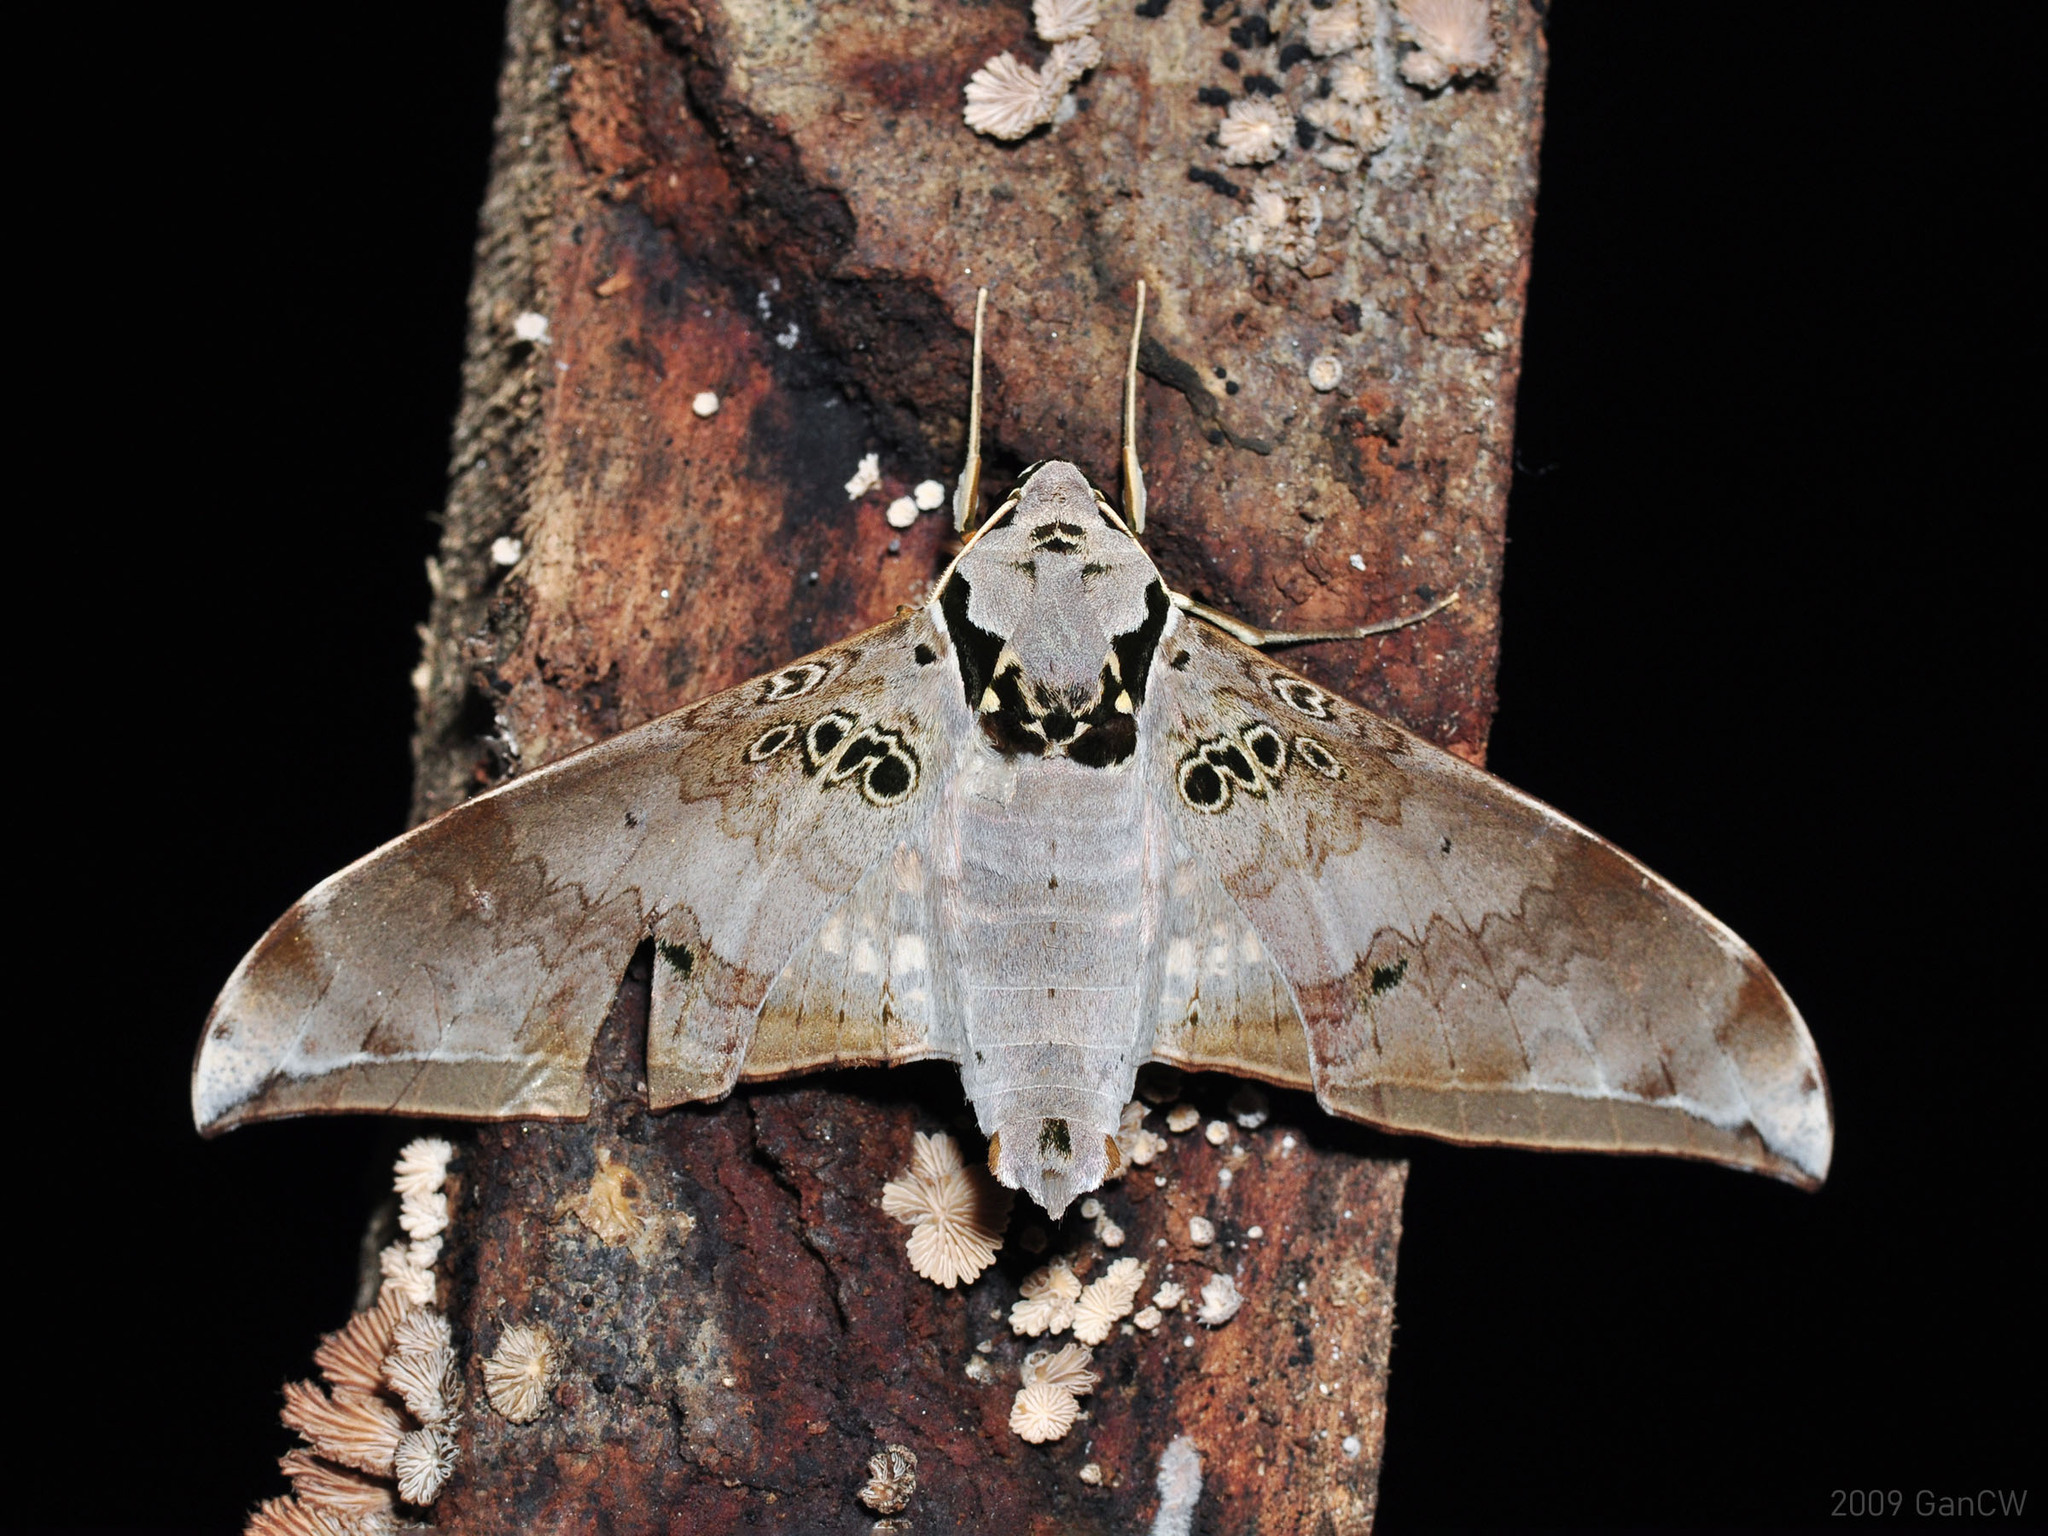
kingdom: Animalia
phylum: Arthropoda
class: Insecta
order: Lepidoptera
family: Sphingidae
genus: Ambulyx
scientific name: Ambulyx canescens
